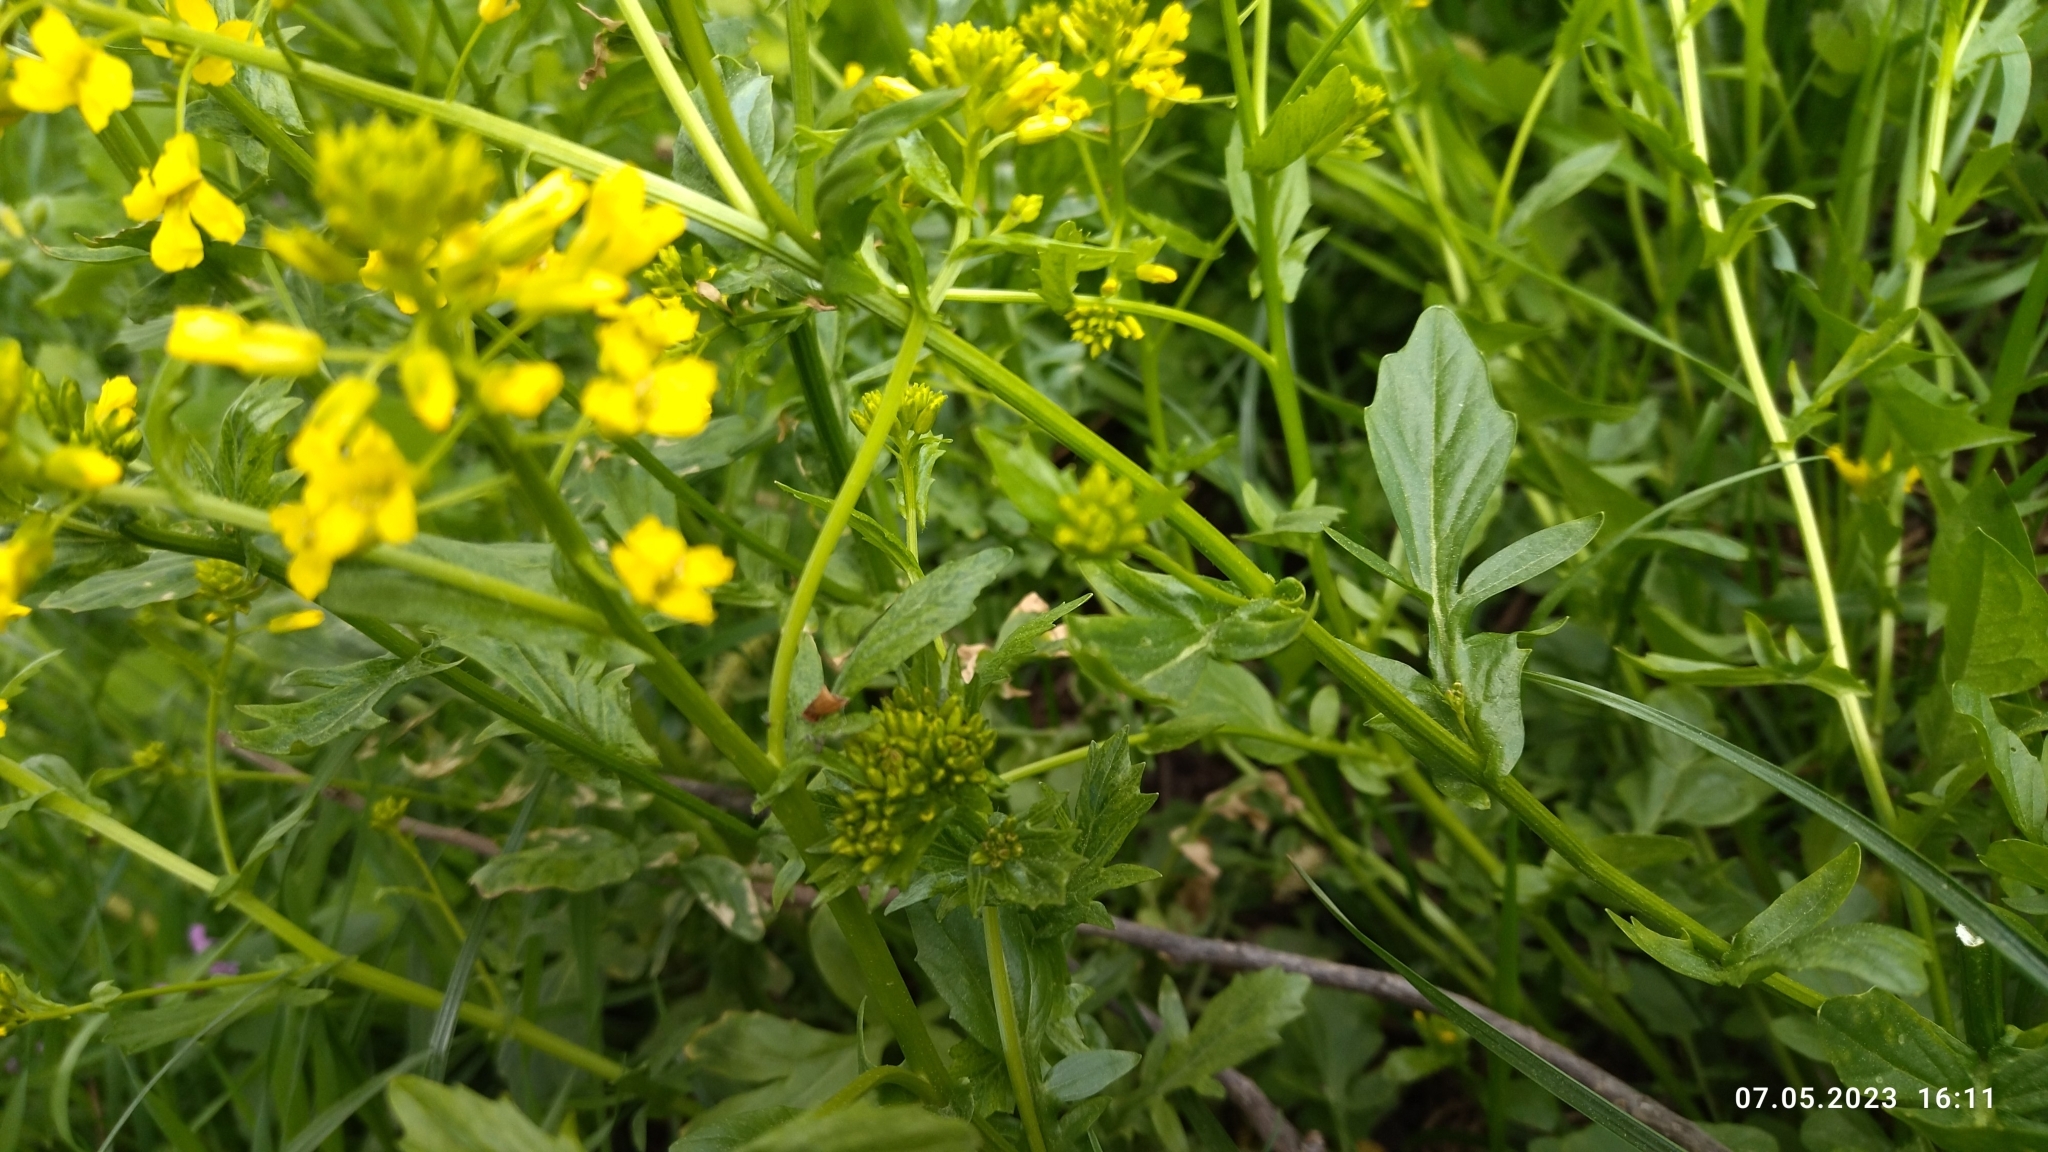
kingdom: Plantae
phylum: Tracheophyta
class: Magnoliopsida
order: Brassicales
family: Brassicaceae
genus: Barbarea
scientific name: Barbarea vulgaris
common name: Cressy-greens
